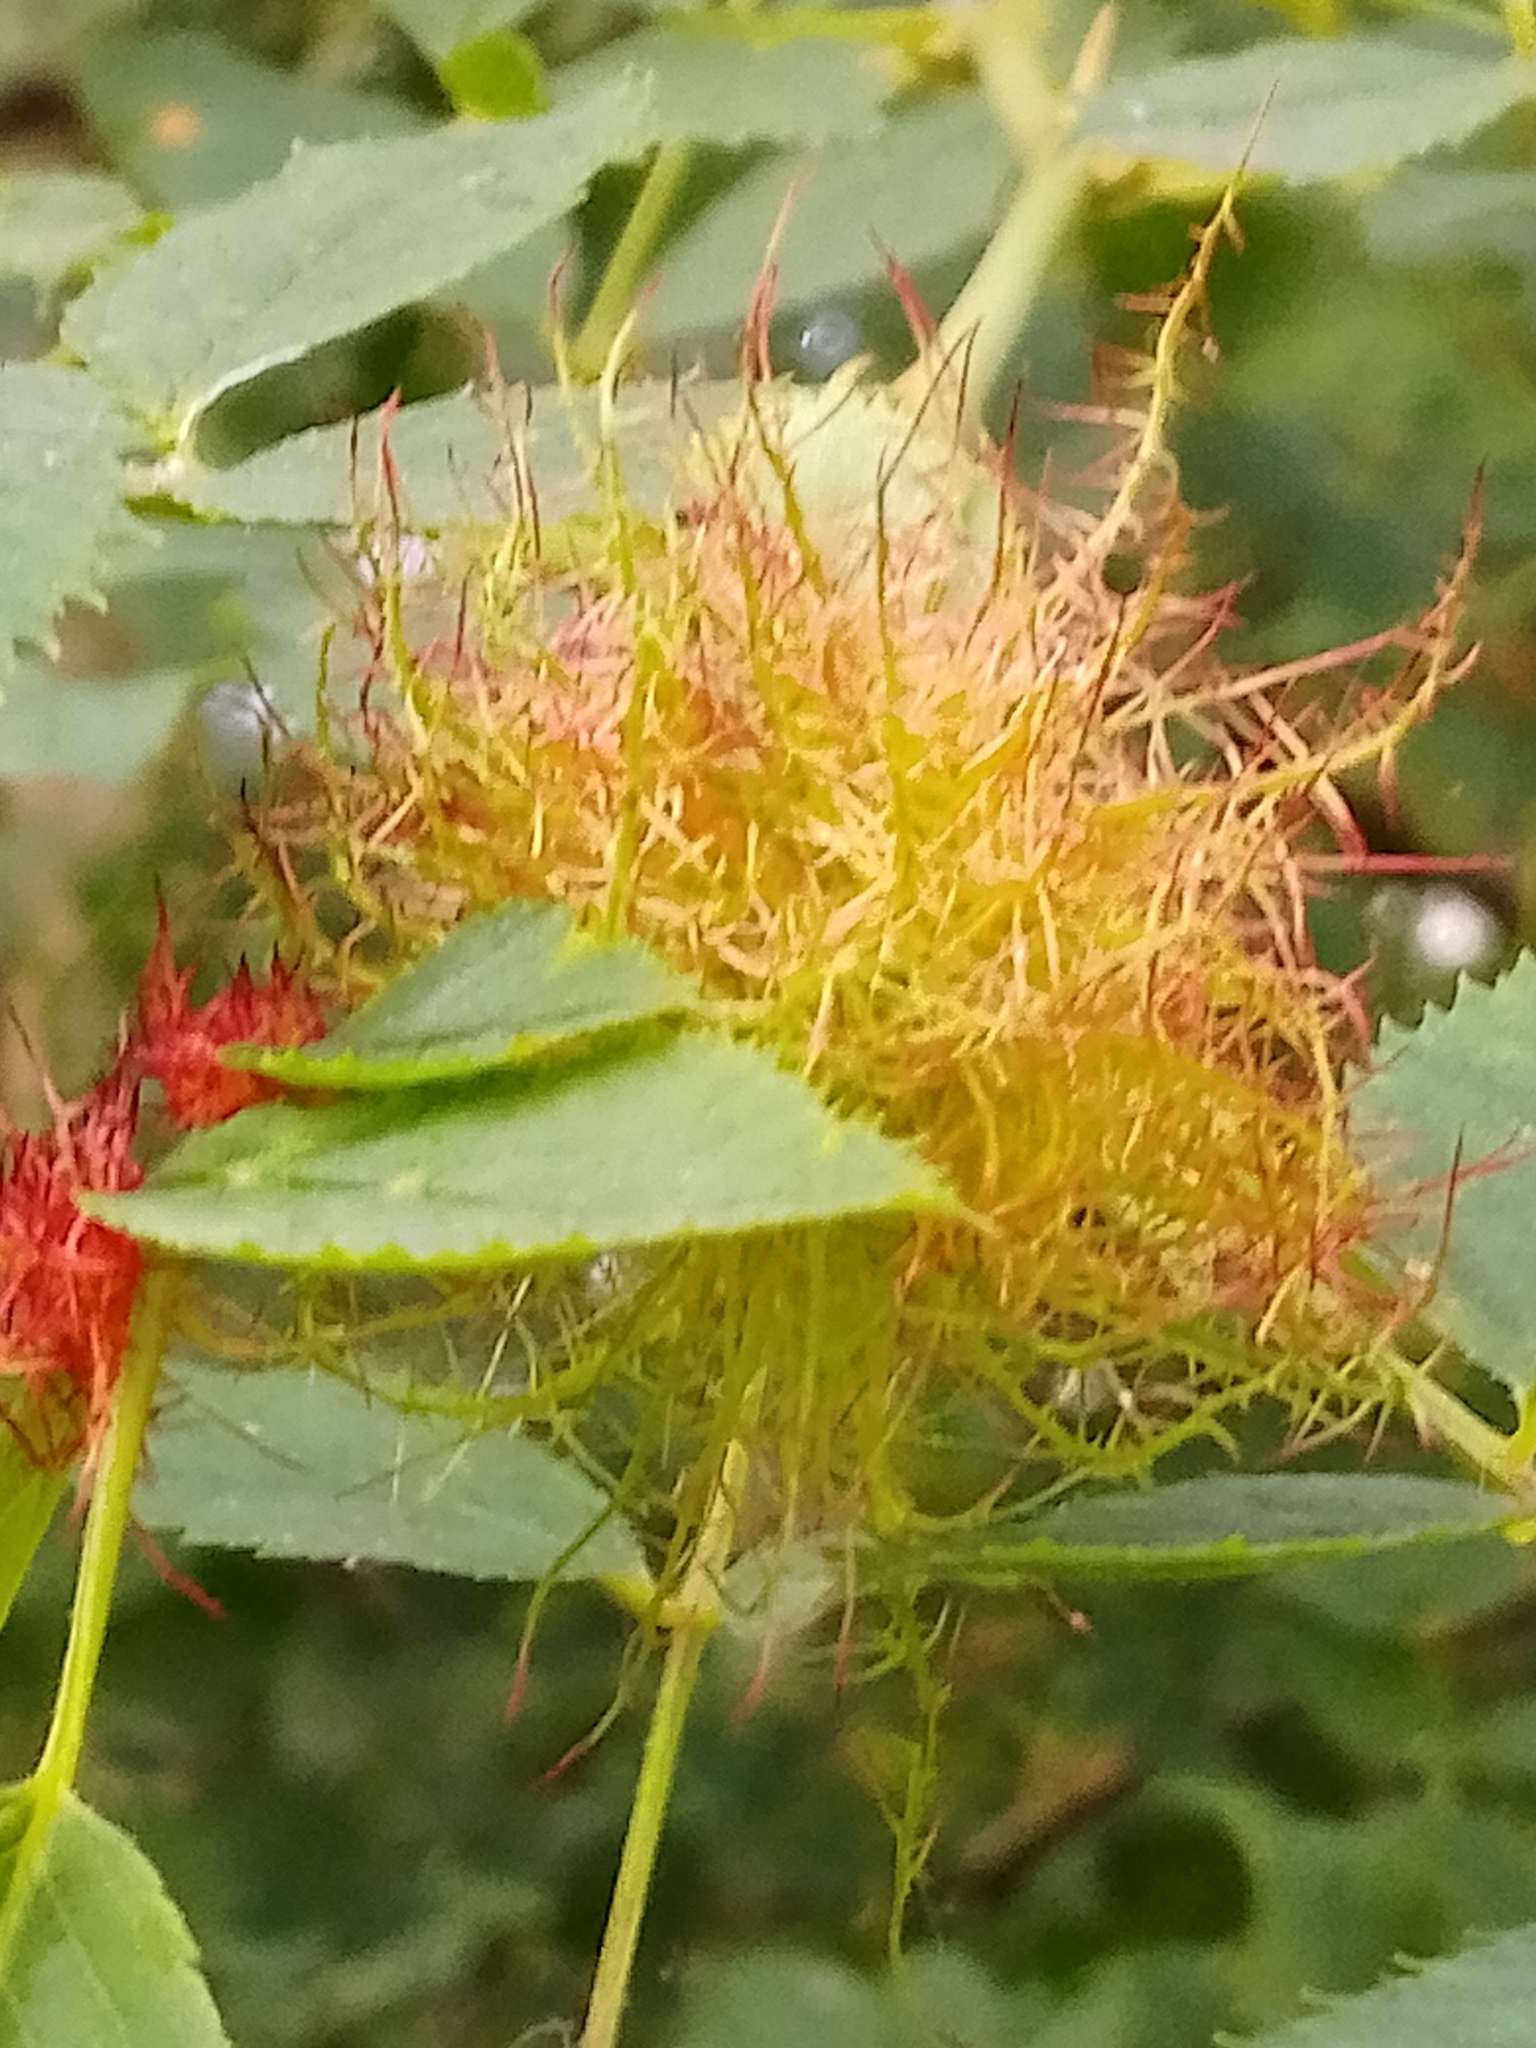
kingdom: Animalia
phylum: Arthropoda
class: Insecta
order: Hymenoptera
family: Cynipidae
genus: Diplolepis
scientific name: Diplolepis rosae
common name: Bedeguar gall
